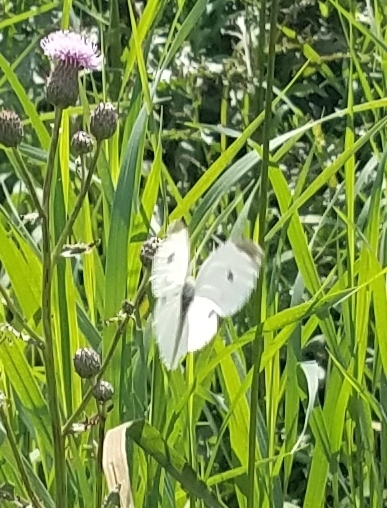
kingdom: Animalia
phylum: Arthropoda
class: Insecta
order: Lepidoptera
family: Pieridae
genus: Pieris
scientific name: Pieris rapae
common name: Small white
